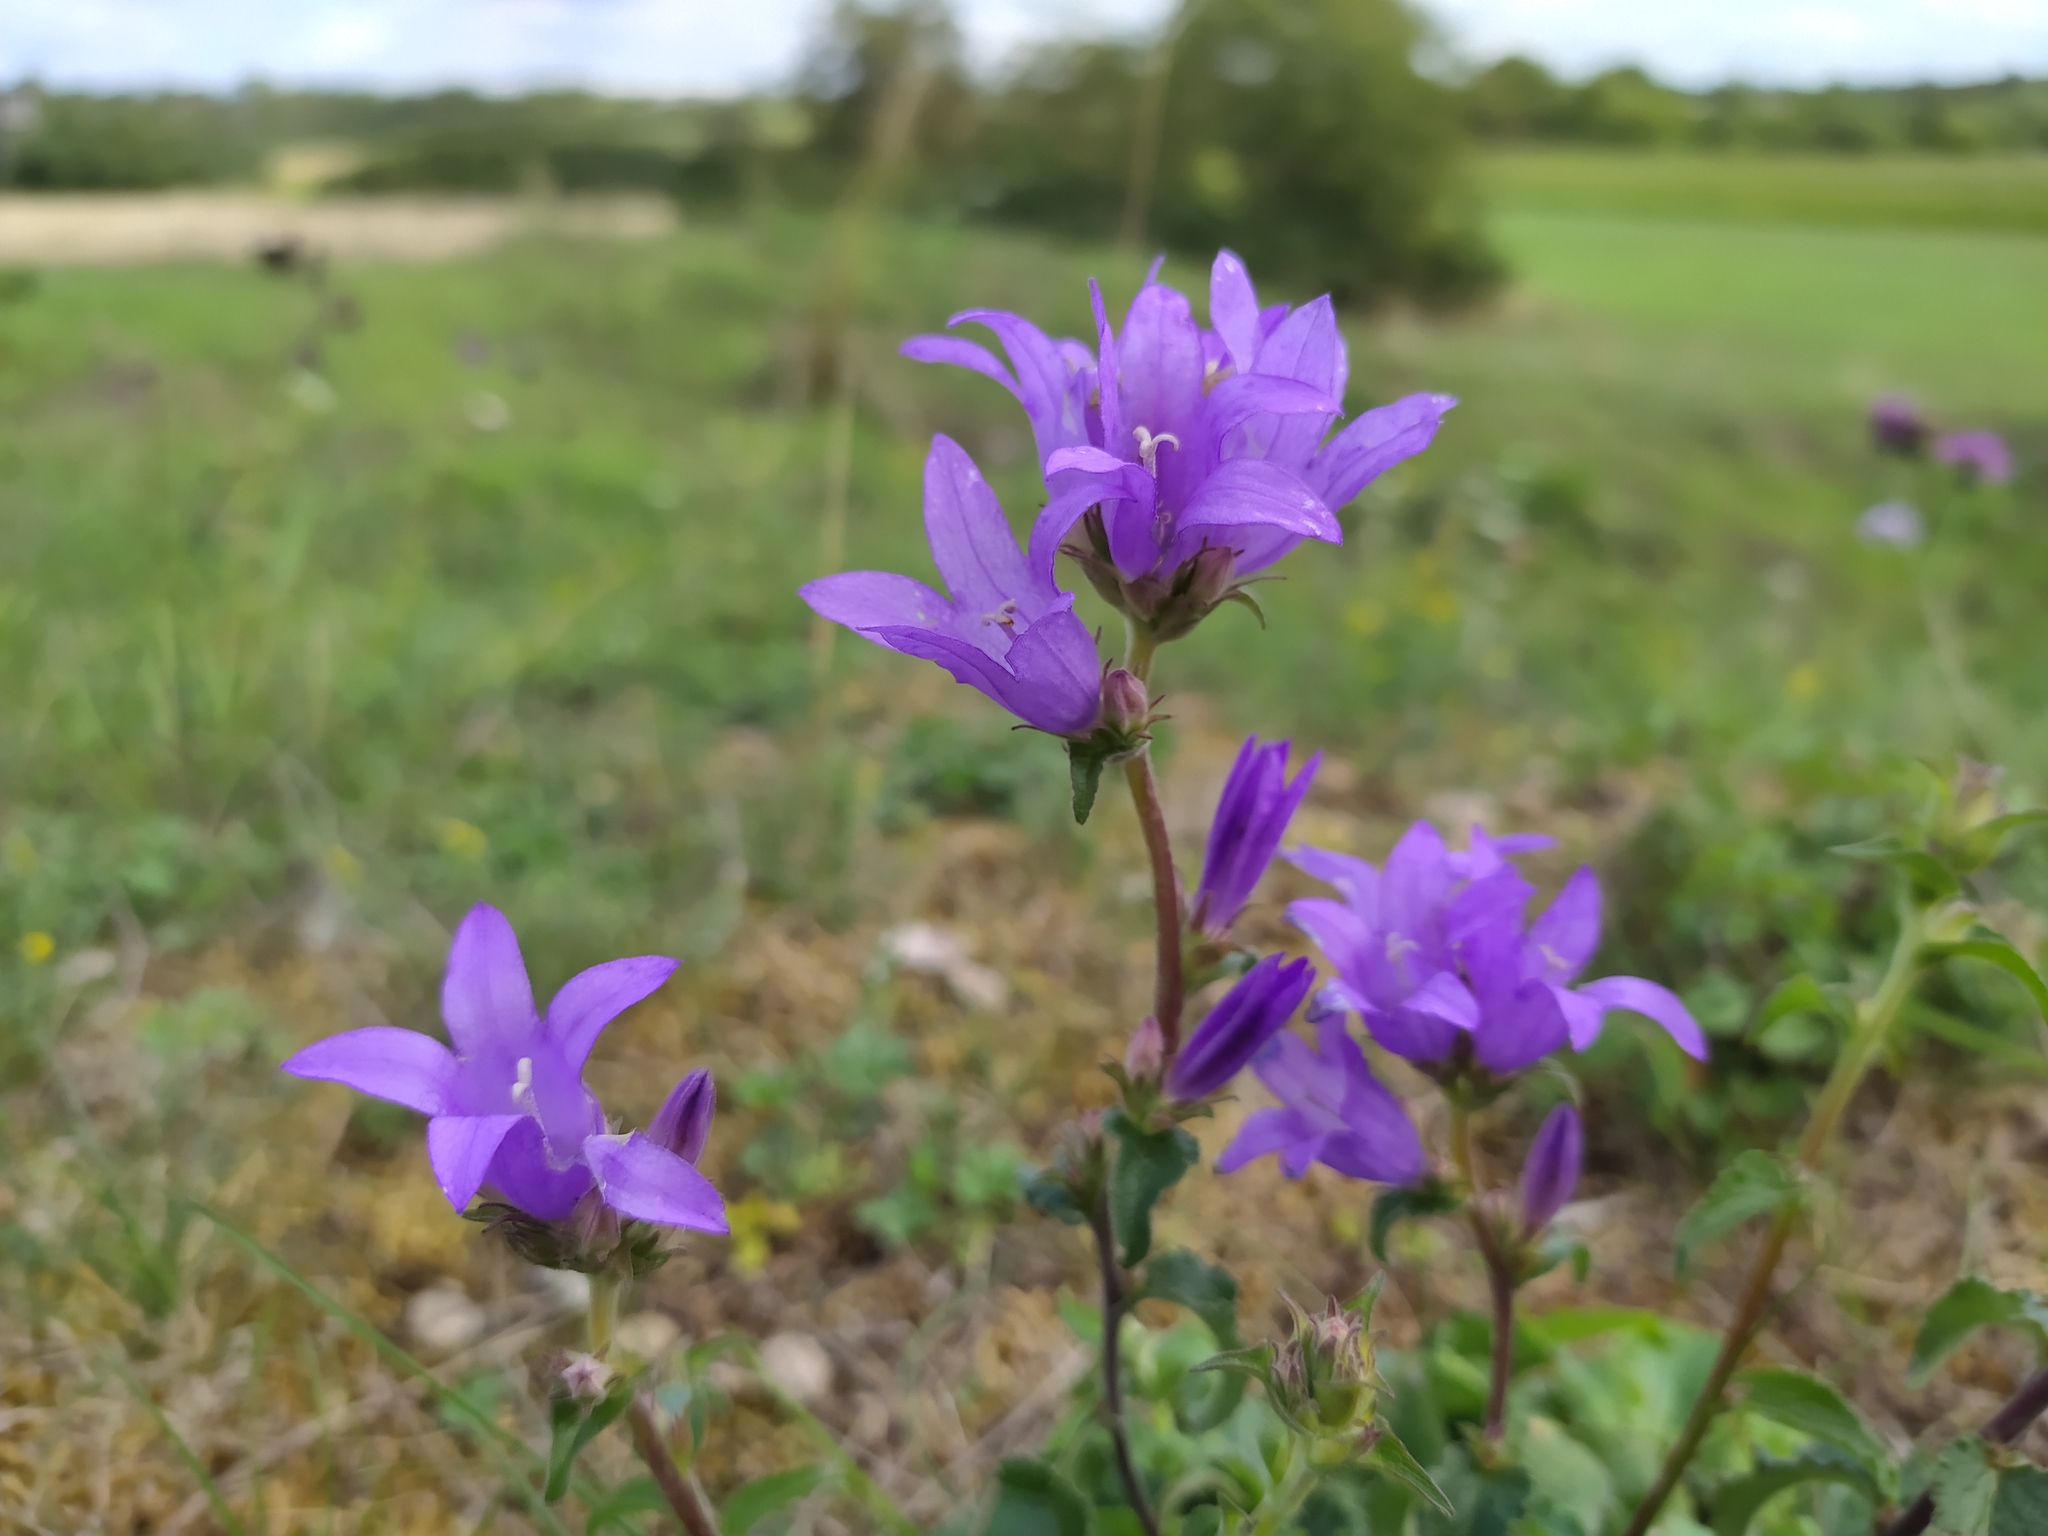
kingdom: Plantae
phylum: Tracheophyta
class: Magnoliopsida
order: Asterales
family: Campanulaceae
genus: Campanula
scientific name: Campanula glomerata
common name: Clustered bellflower
